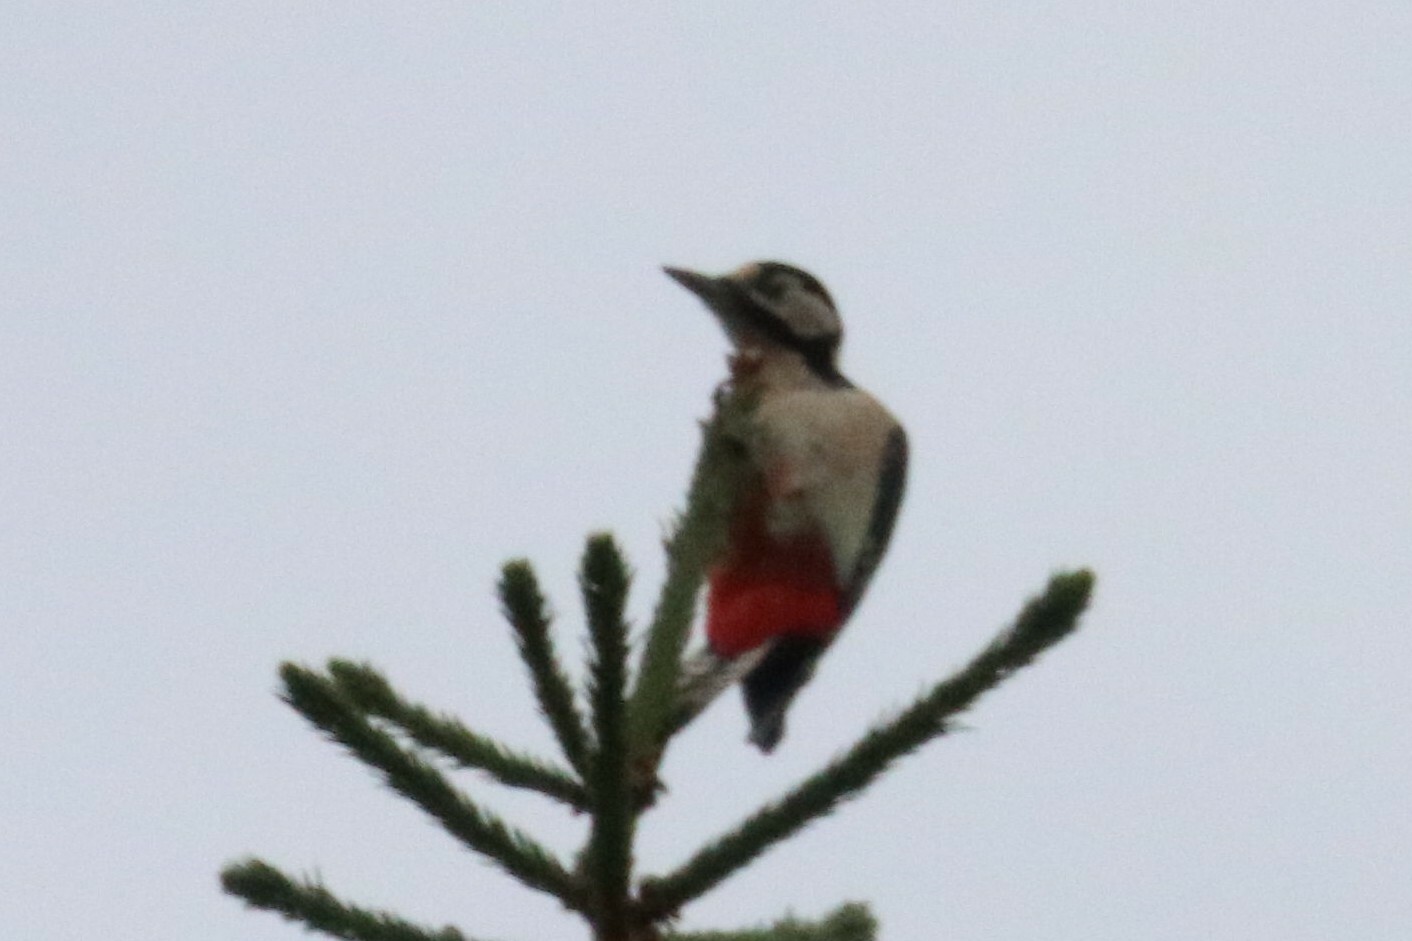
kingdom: Animalia
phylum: Chordata
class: Aves
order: Piciformes
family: Picidae
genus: Dendrocopos
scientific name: Dendrocopos major
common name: Great spotted woodpecker
